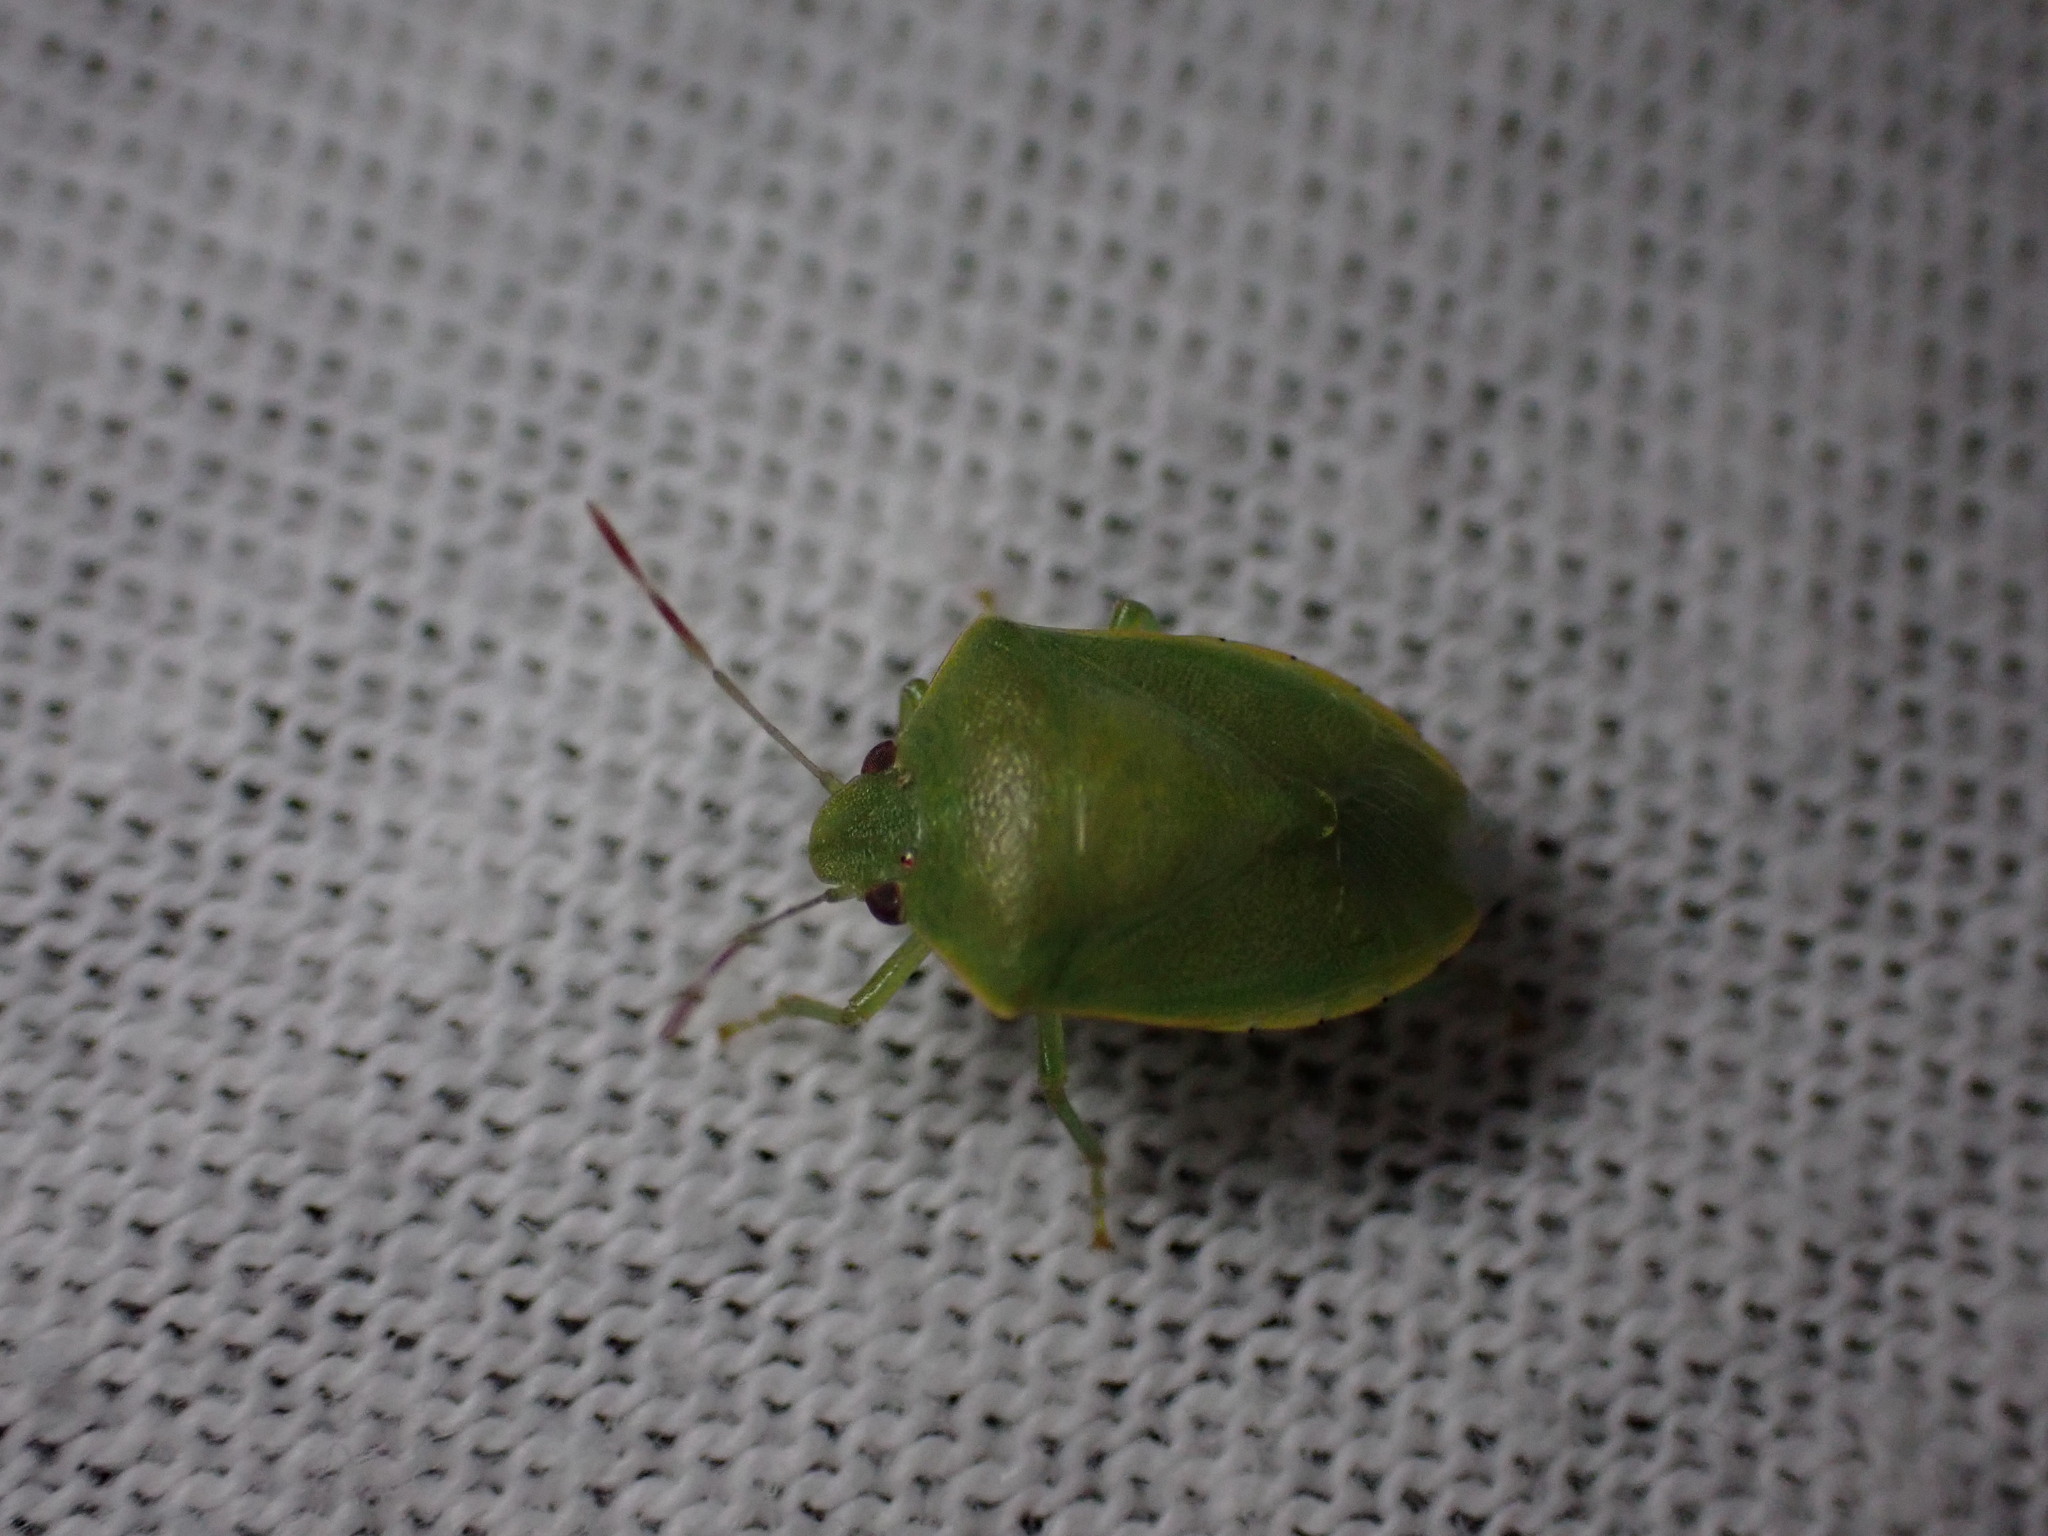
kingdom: Animalia
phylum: Arthropoda
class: Insecta
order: Hemiptera
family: Pentatomidae
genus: Acrosternum
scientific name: Acrosternum millierei
